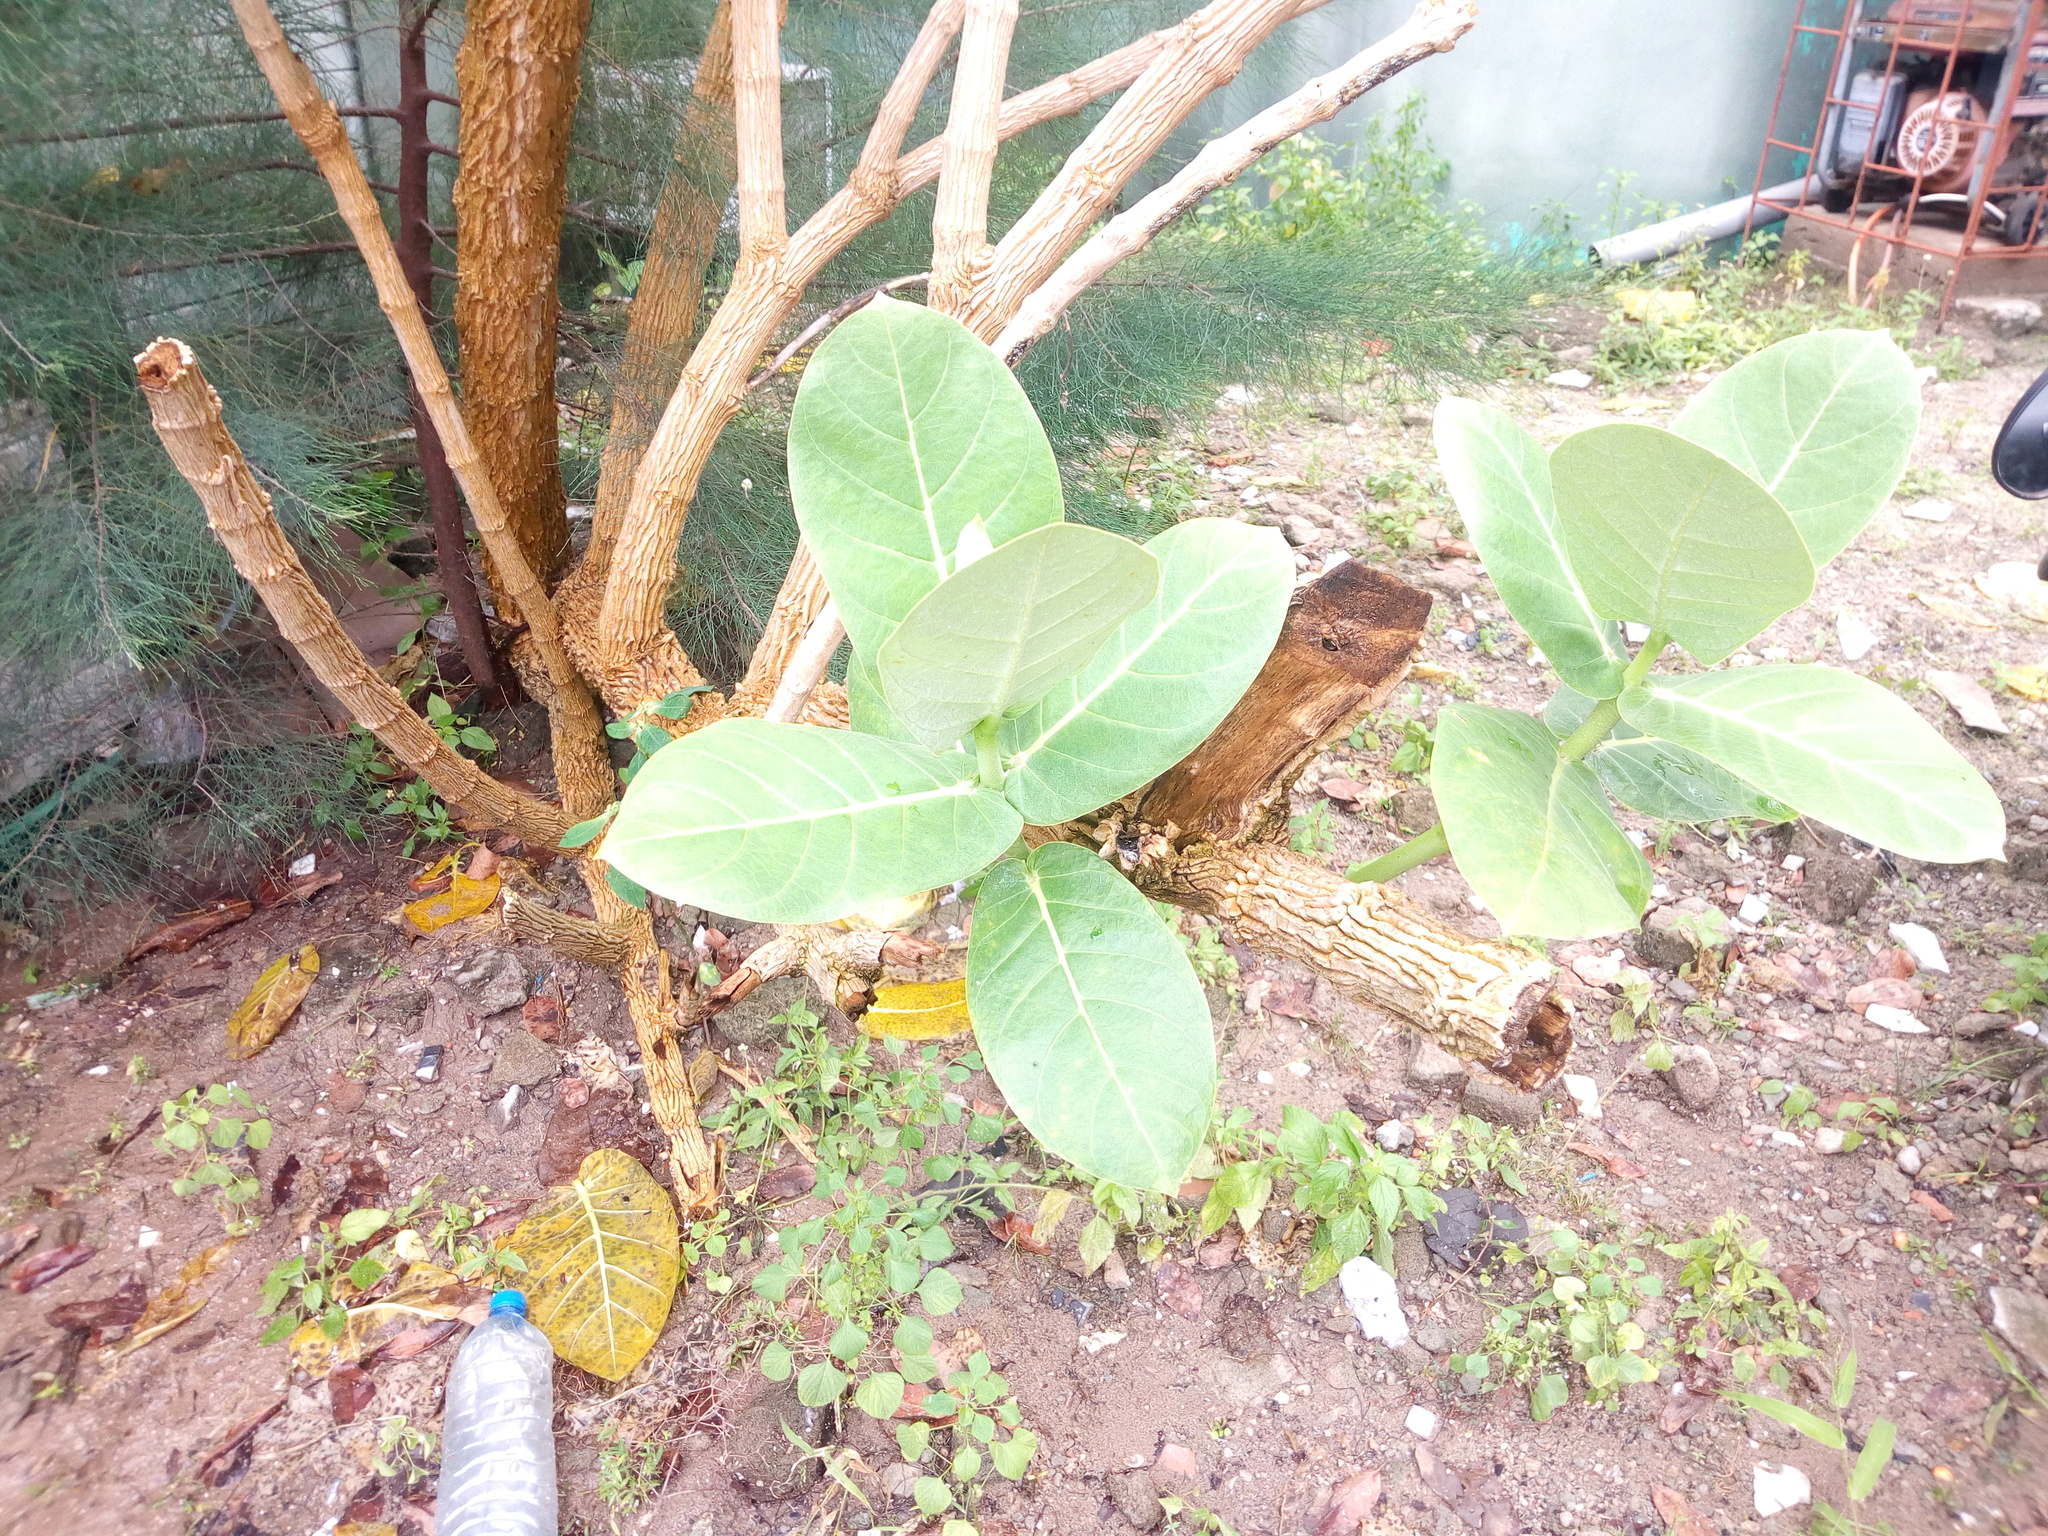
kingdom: Plantae
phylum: Tracheophyta
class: Magnoliopsida
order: Gentianales
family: Apocynaceae
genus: Calotropis
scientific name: Calotropis procera
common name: Roostertree
